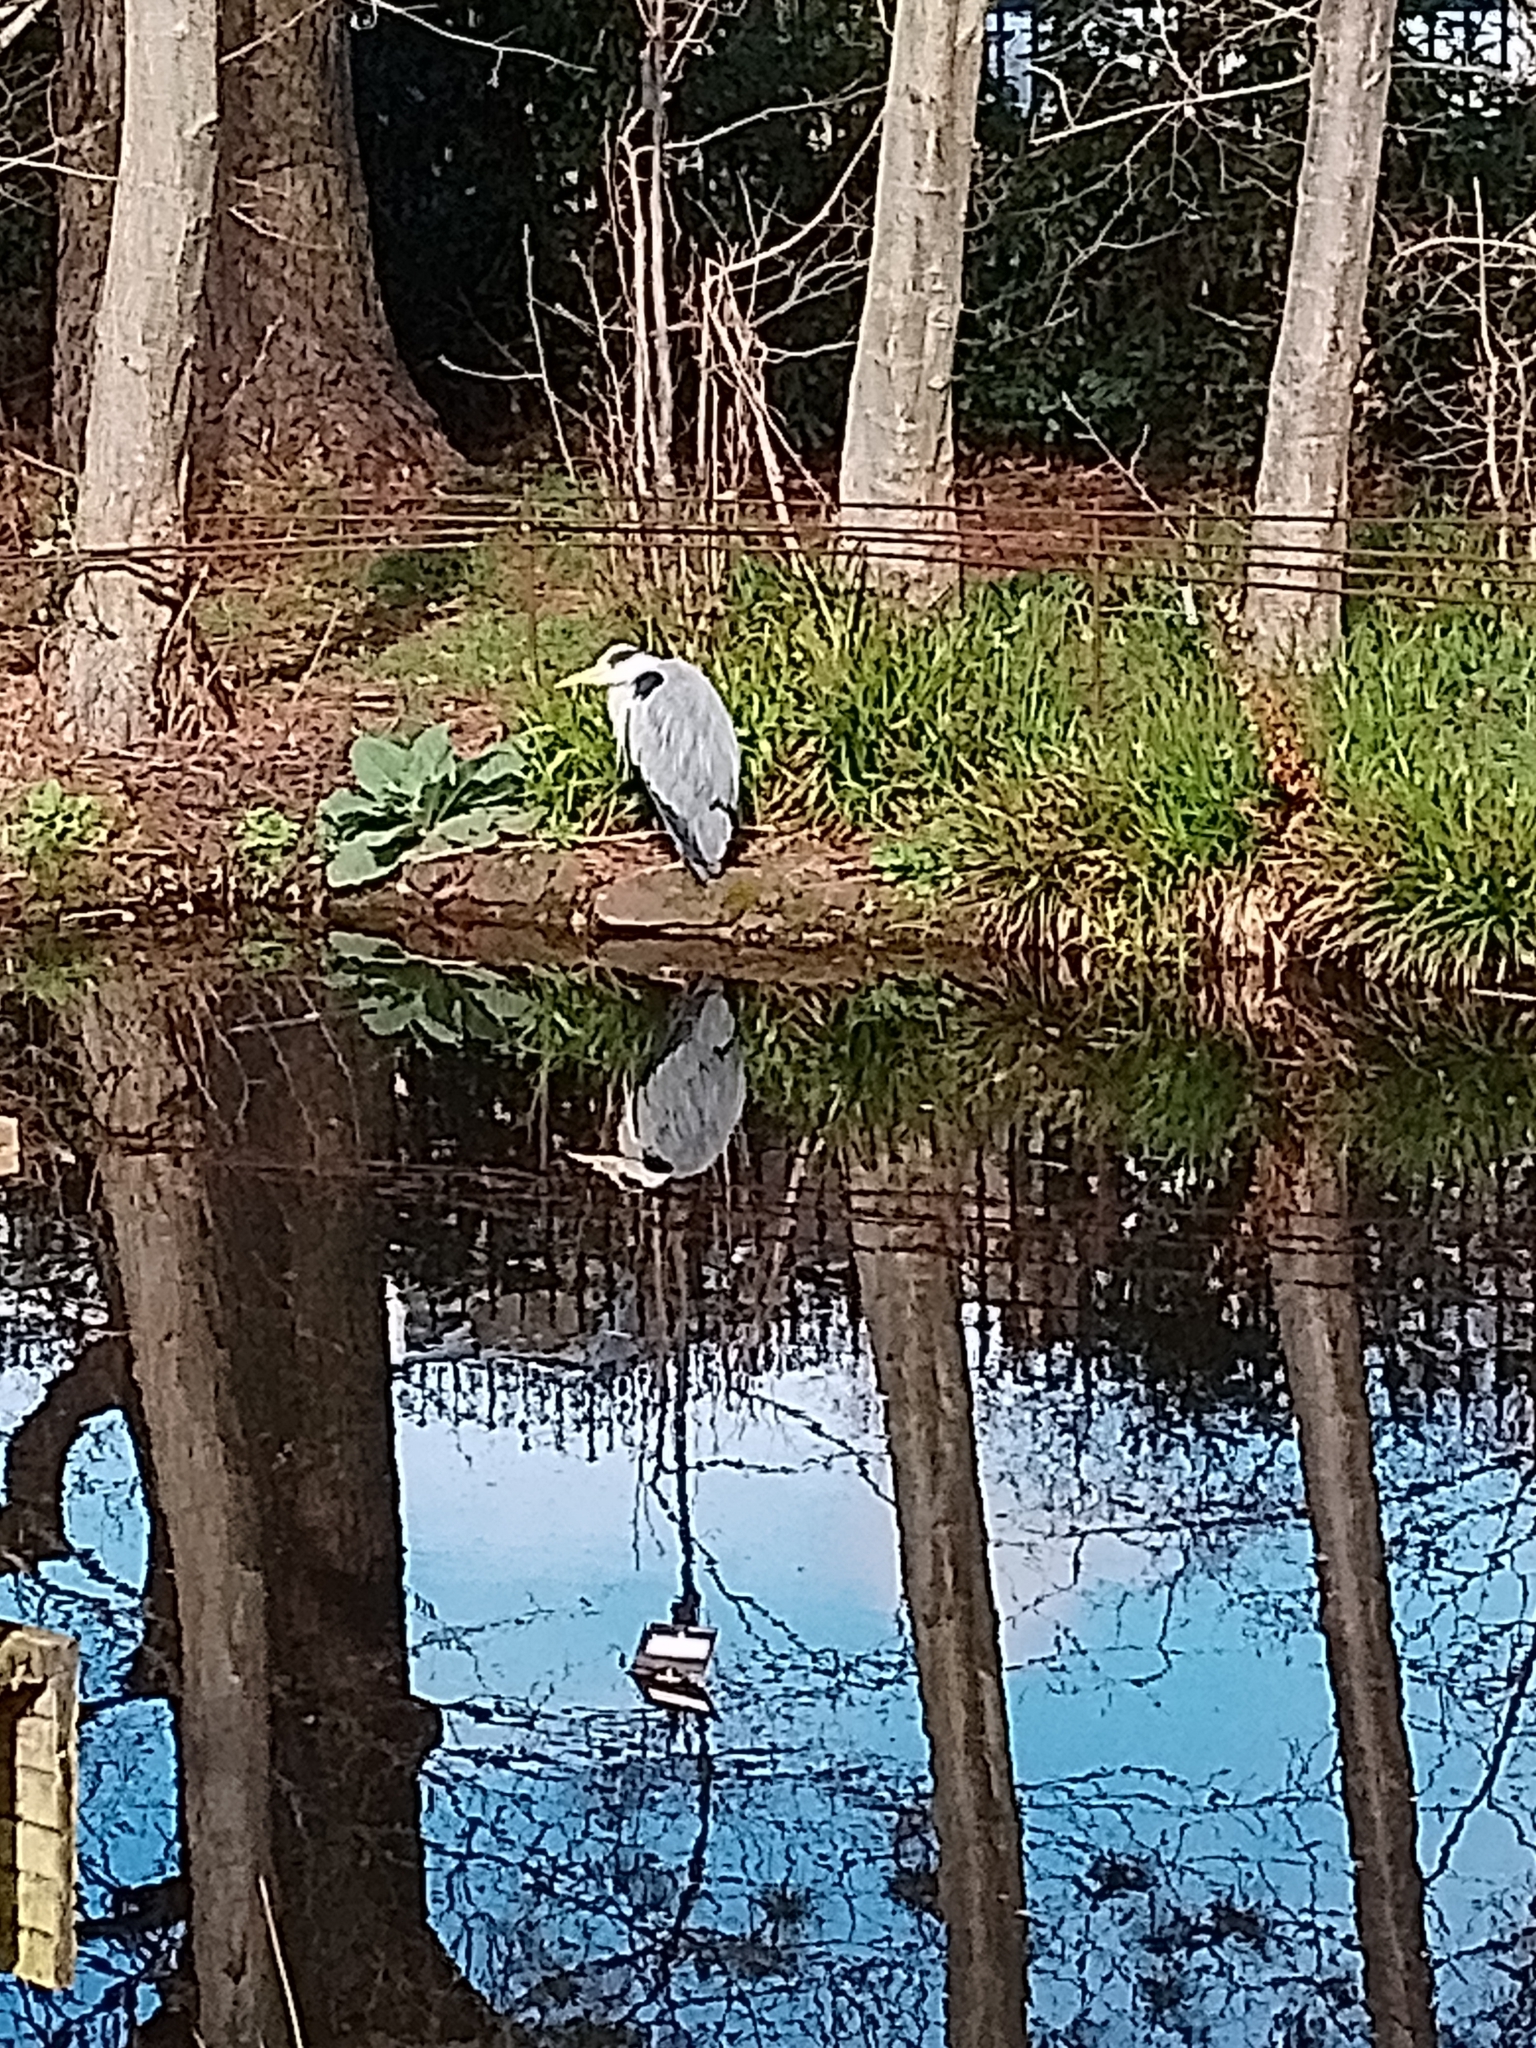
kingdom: Animalia
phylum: Chordata
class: Aves
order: Pelecaniformes
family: Ardeidae
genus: Ardea
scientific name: Ardea cinerea
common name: Grey heron
